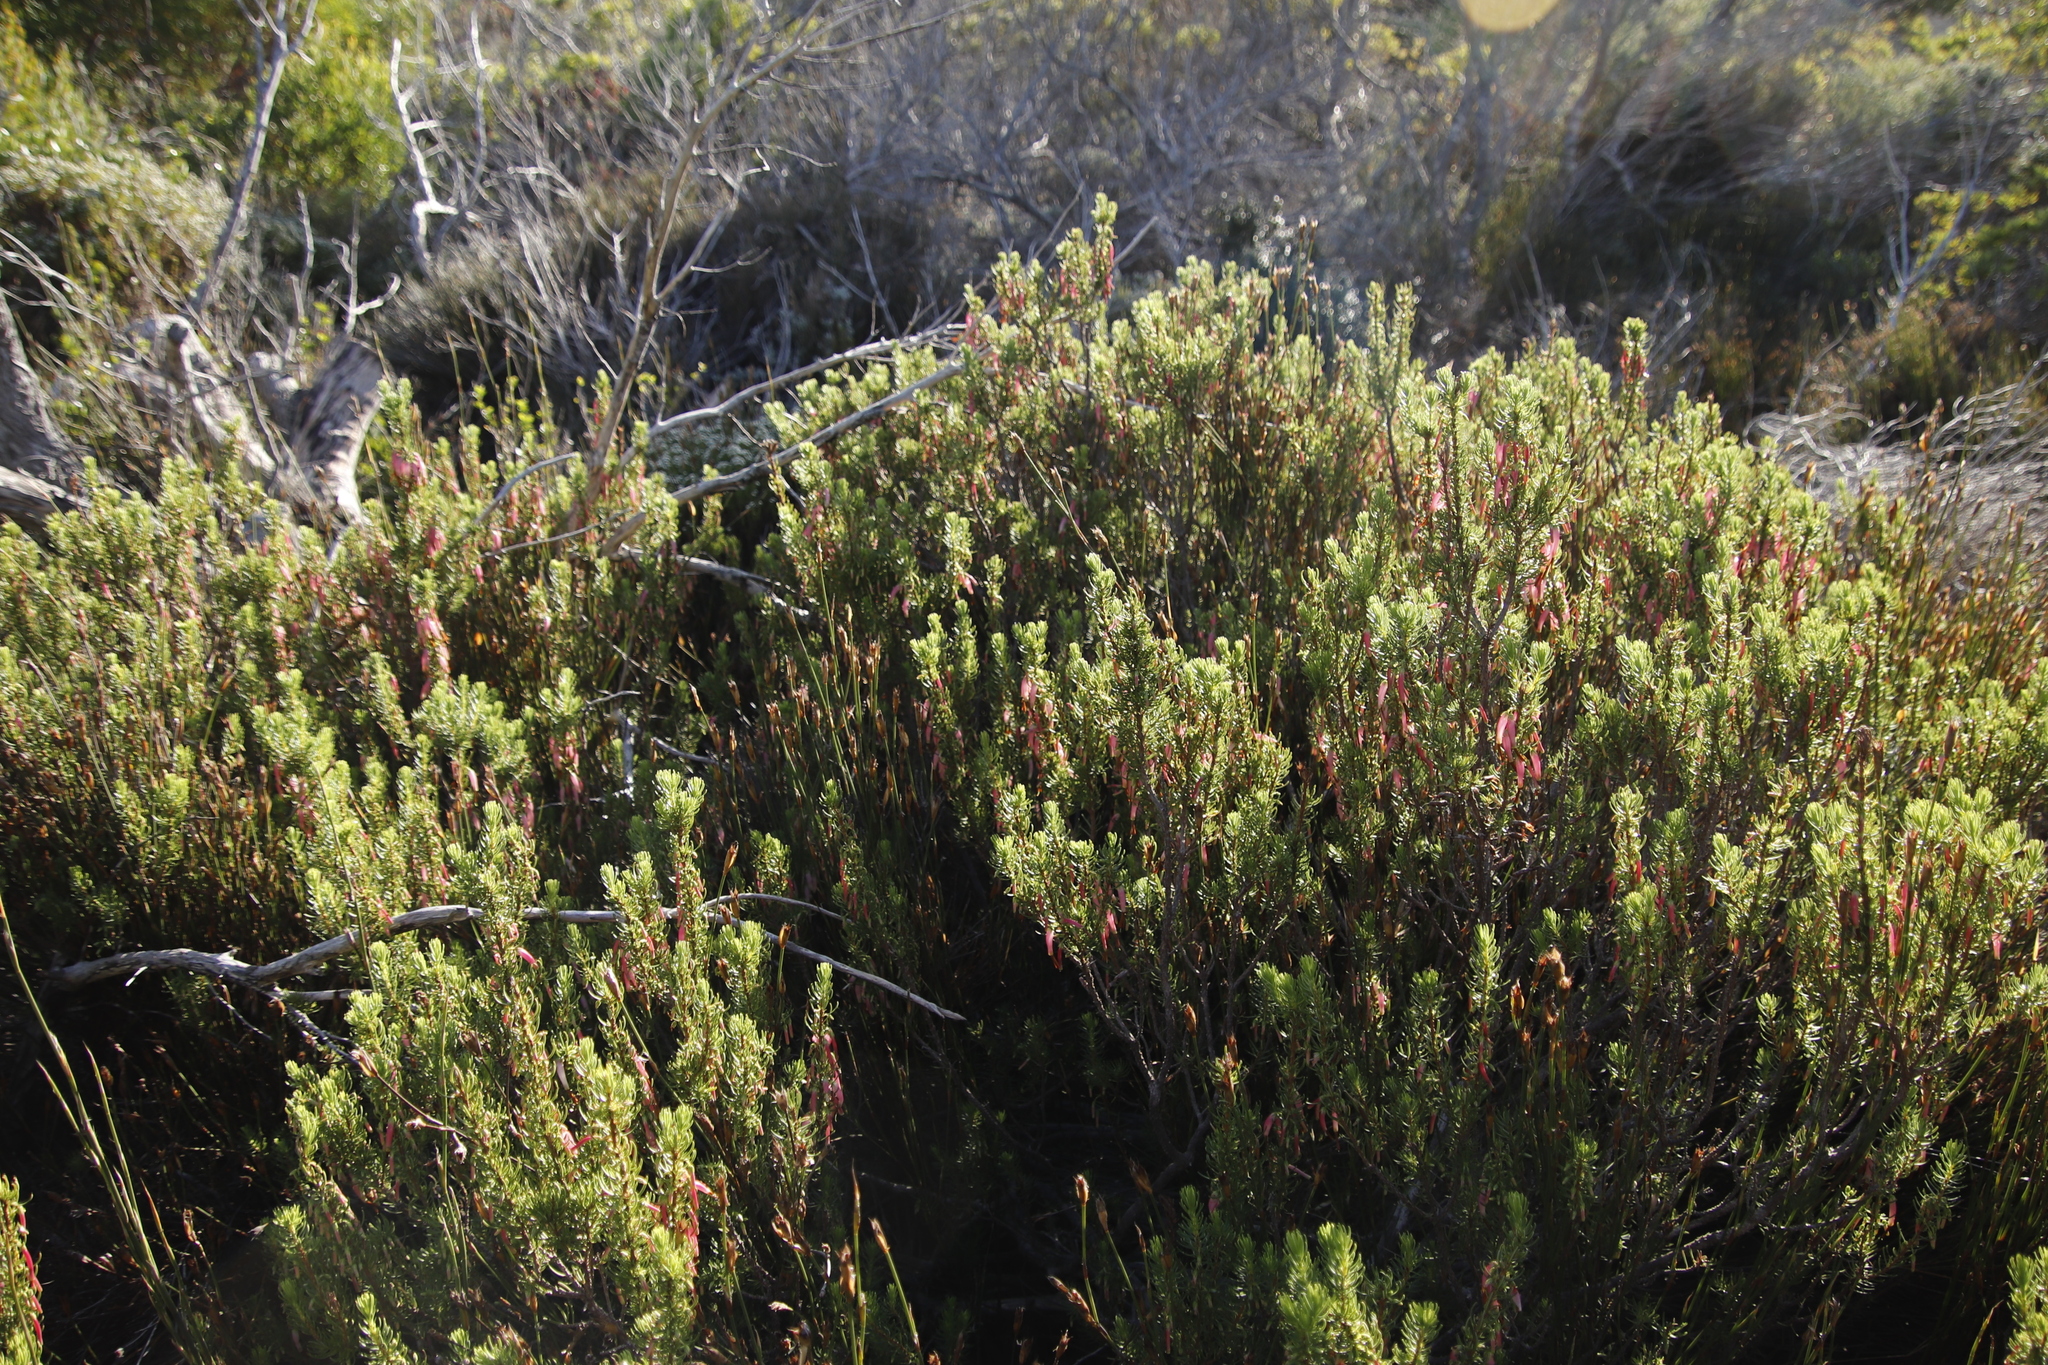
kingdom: Plantae
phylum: Tracheophyta
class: Magnoliopsida
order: Ericales
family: Ericaceae
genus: Erica
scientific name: Erica plukenetii
